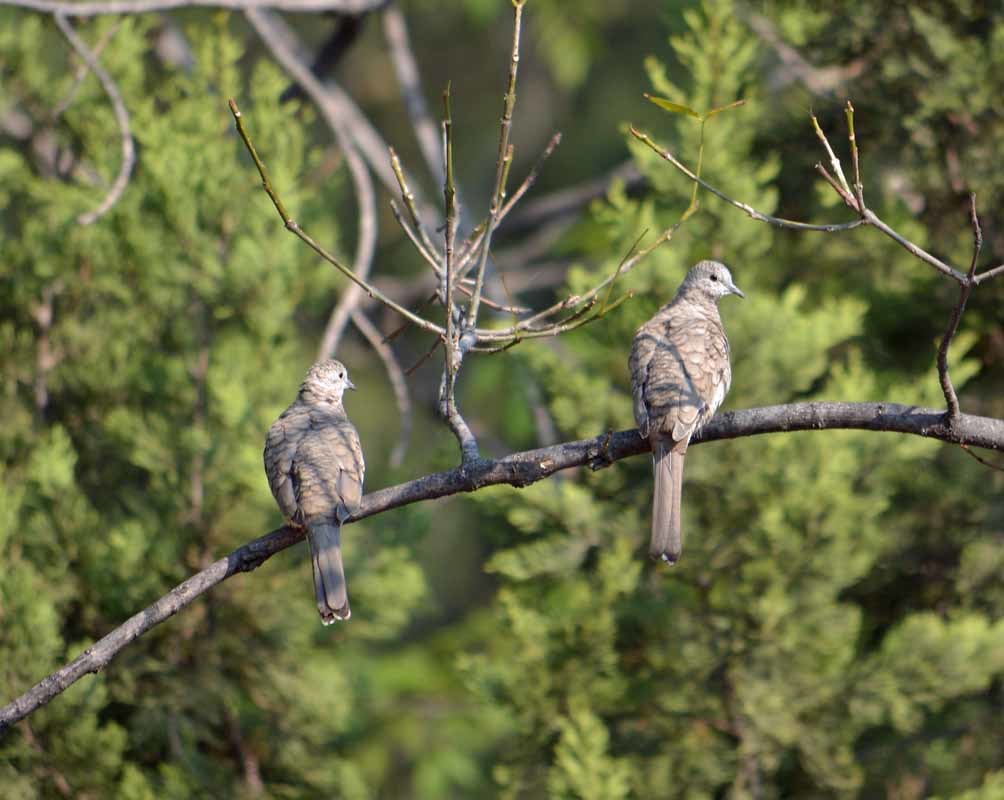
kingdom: Animalia
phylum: Chordata
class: Aves
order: Columbiformes
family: Columbidae
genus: Columbina
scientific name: Columbina inca
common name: Inca dove
